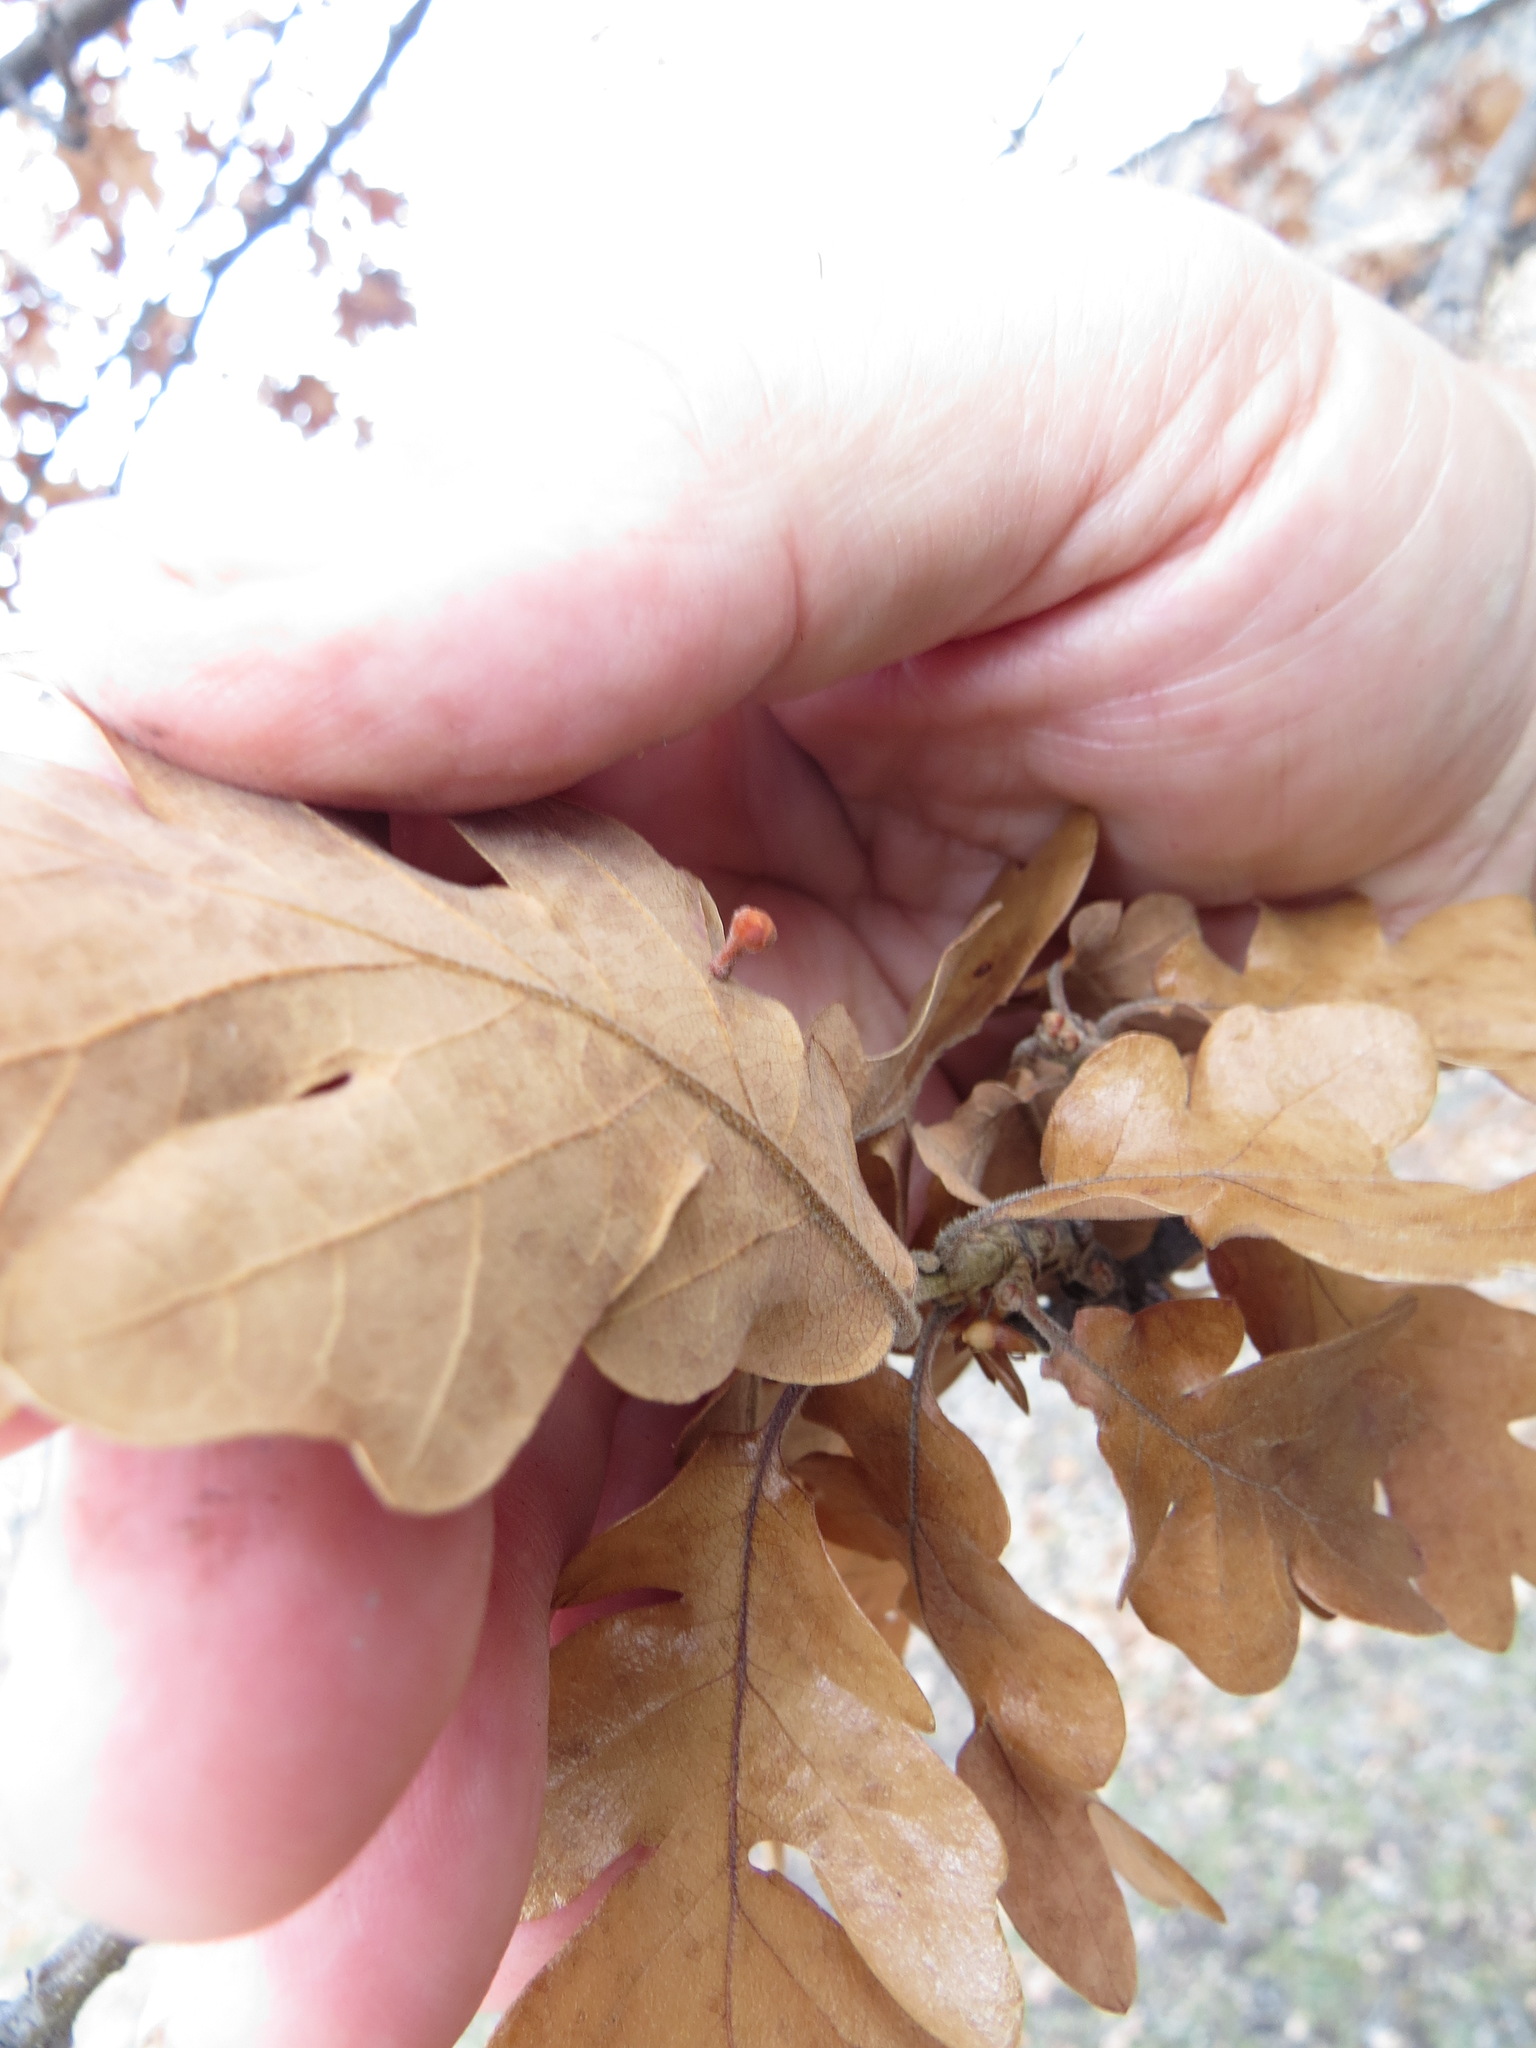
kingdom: Animalia
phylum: Arthropoda
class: Insecta
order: Hymenoptera
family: Cynipidae
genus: Trigonaspis
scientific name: Trigonaspis
